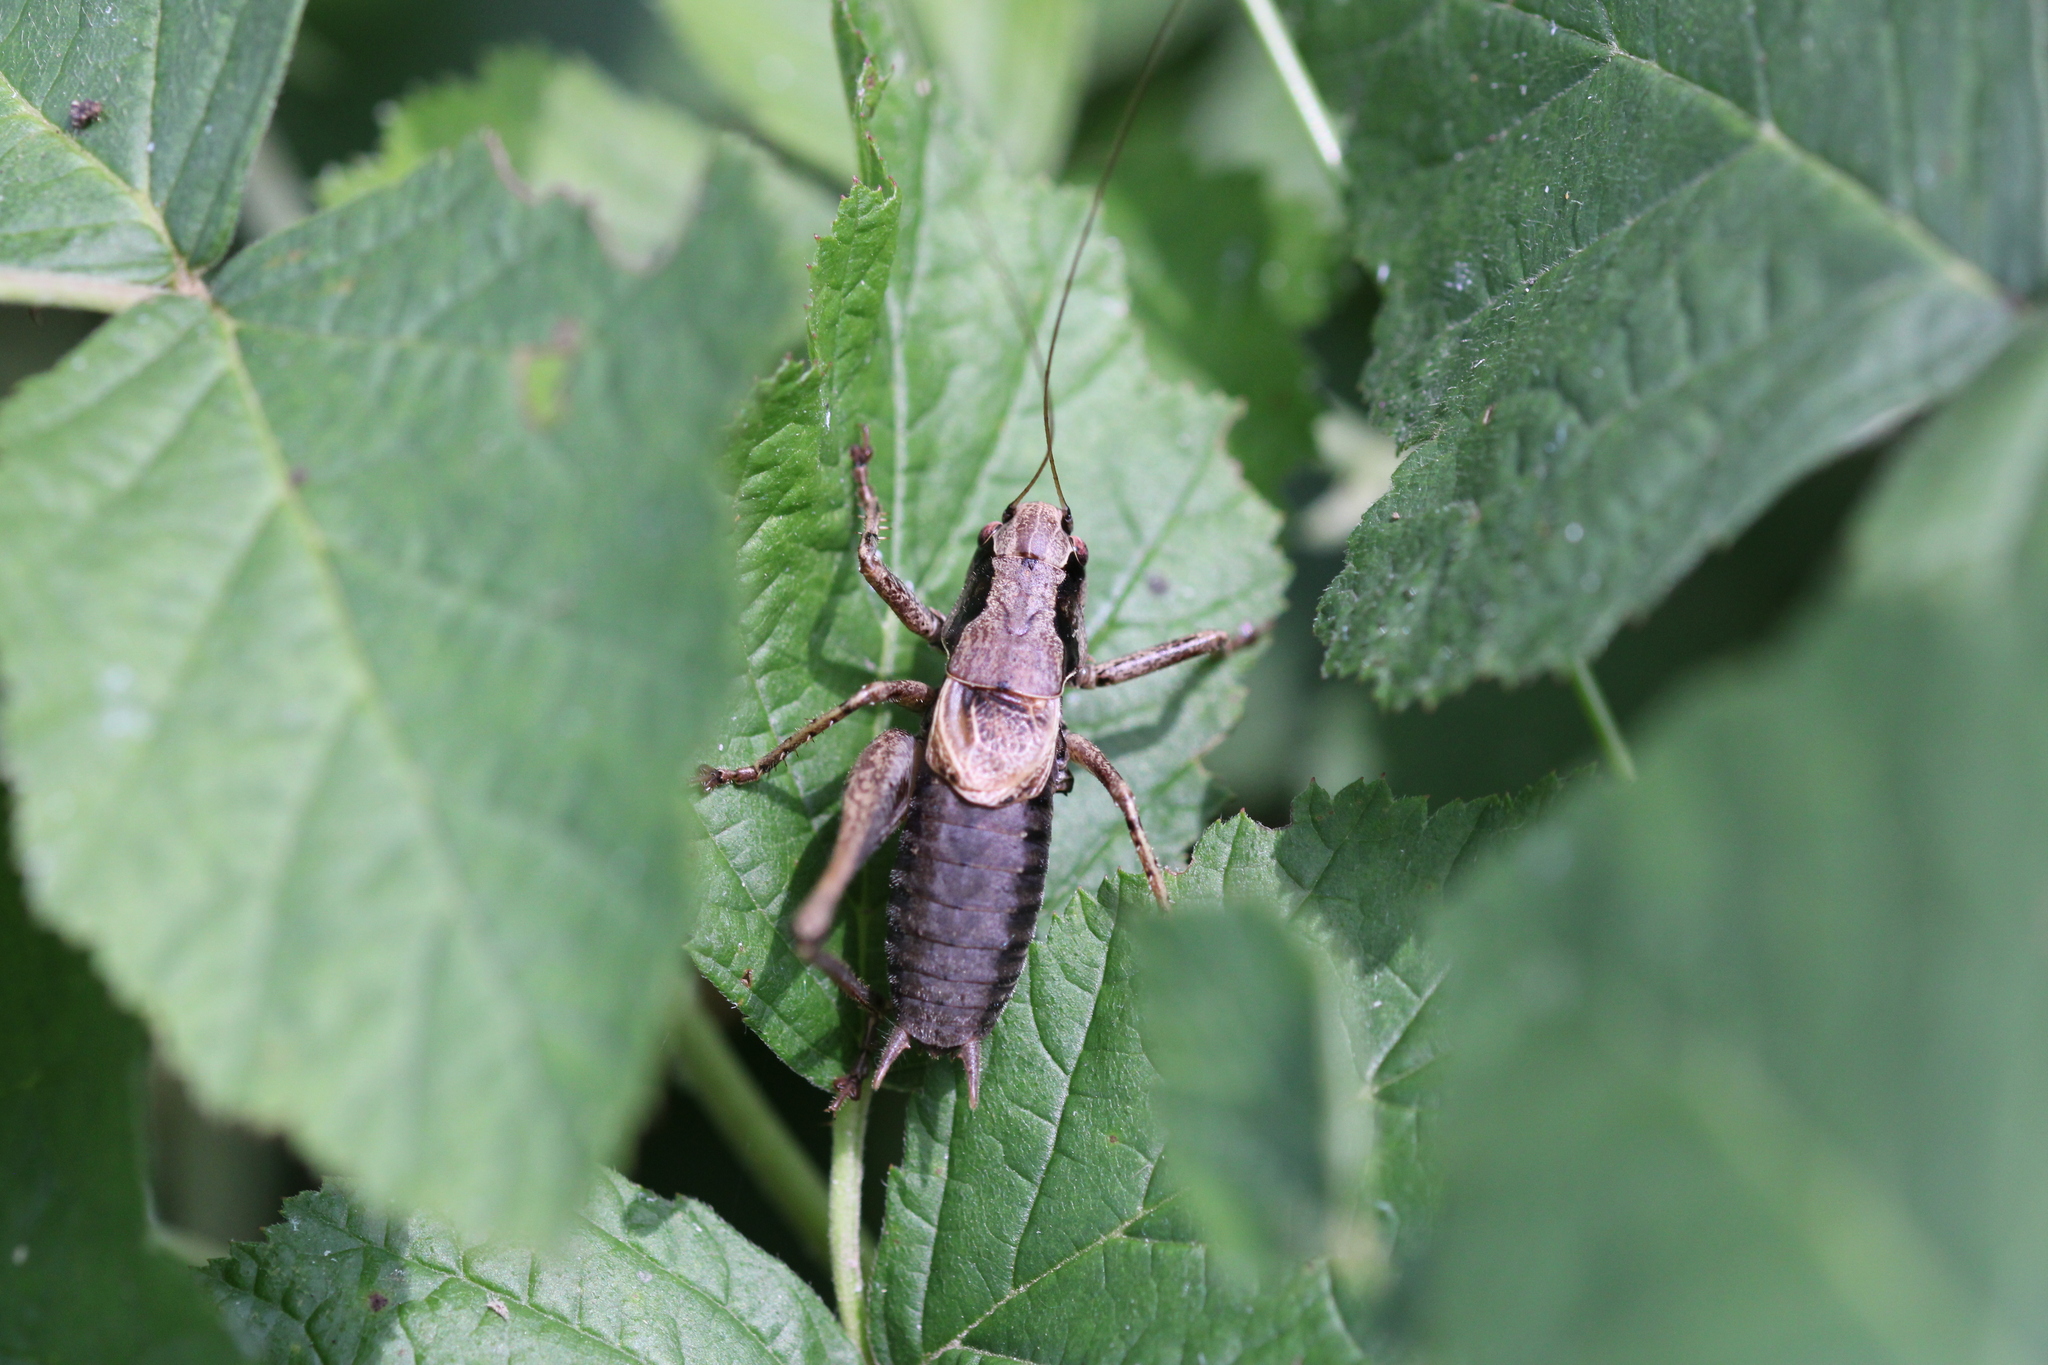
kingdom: Animalia
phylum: Arthropoda
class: Insecta
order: Orthoptera
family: Tettigoniidae
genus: Pholidoptera
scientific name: Pholidoptera griseoaptera
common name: Dark bush-cricket
